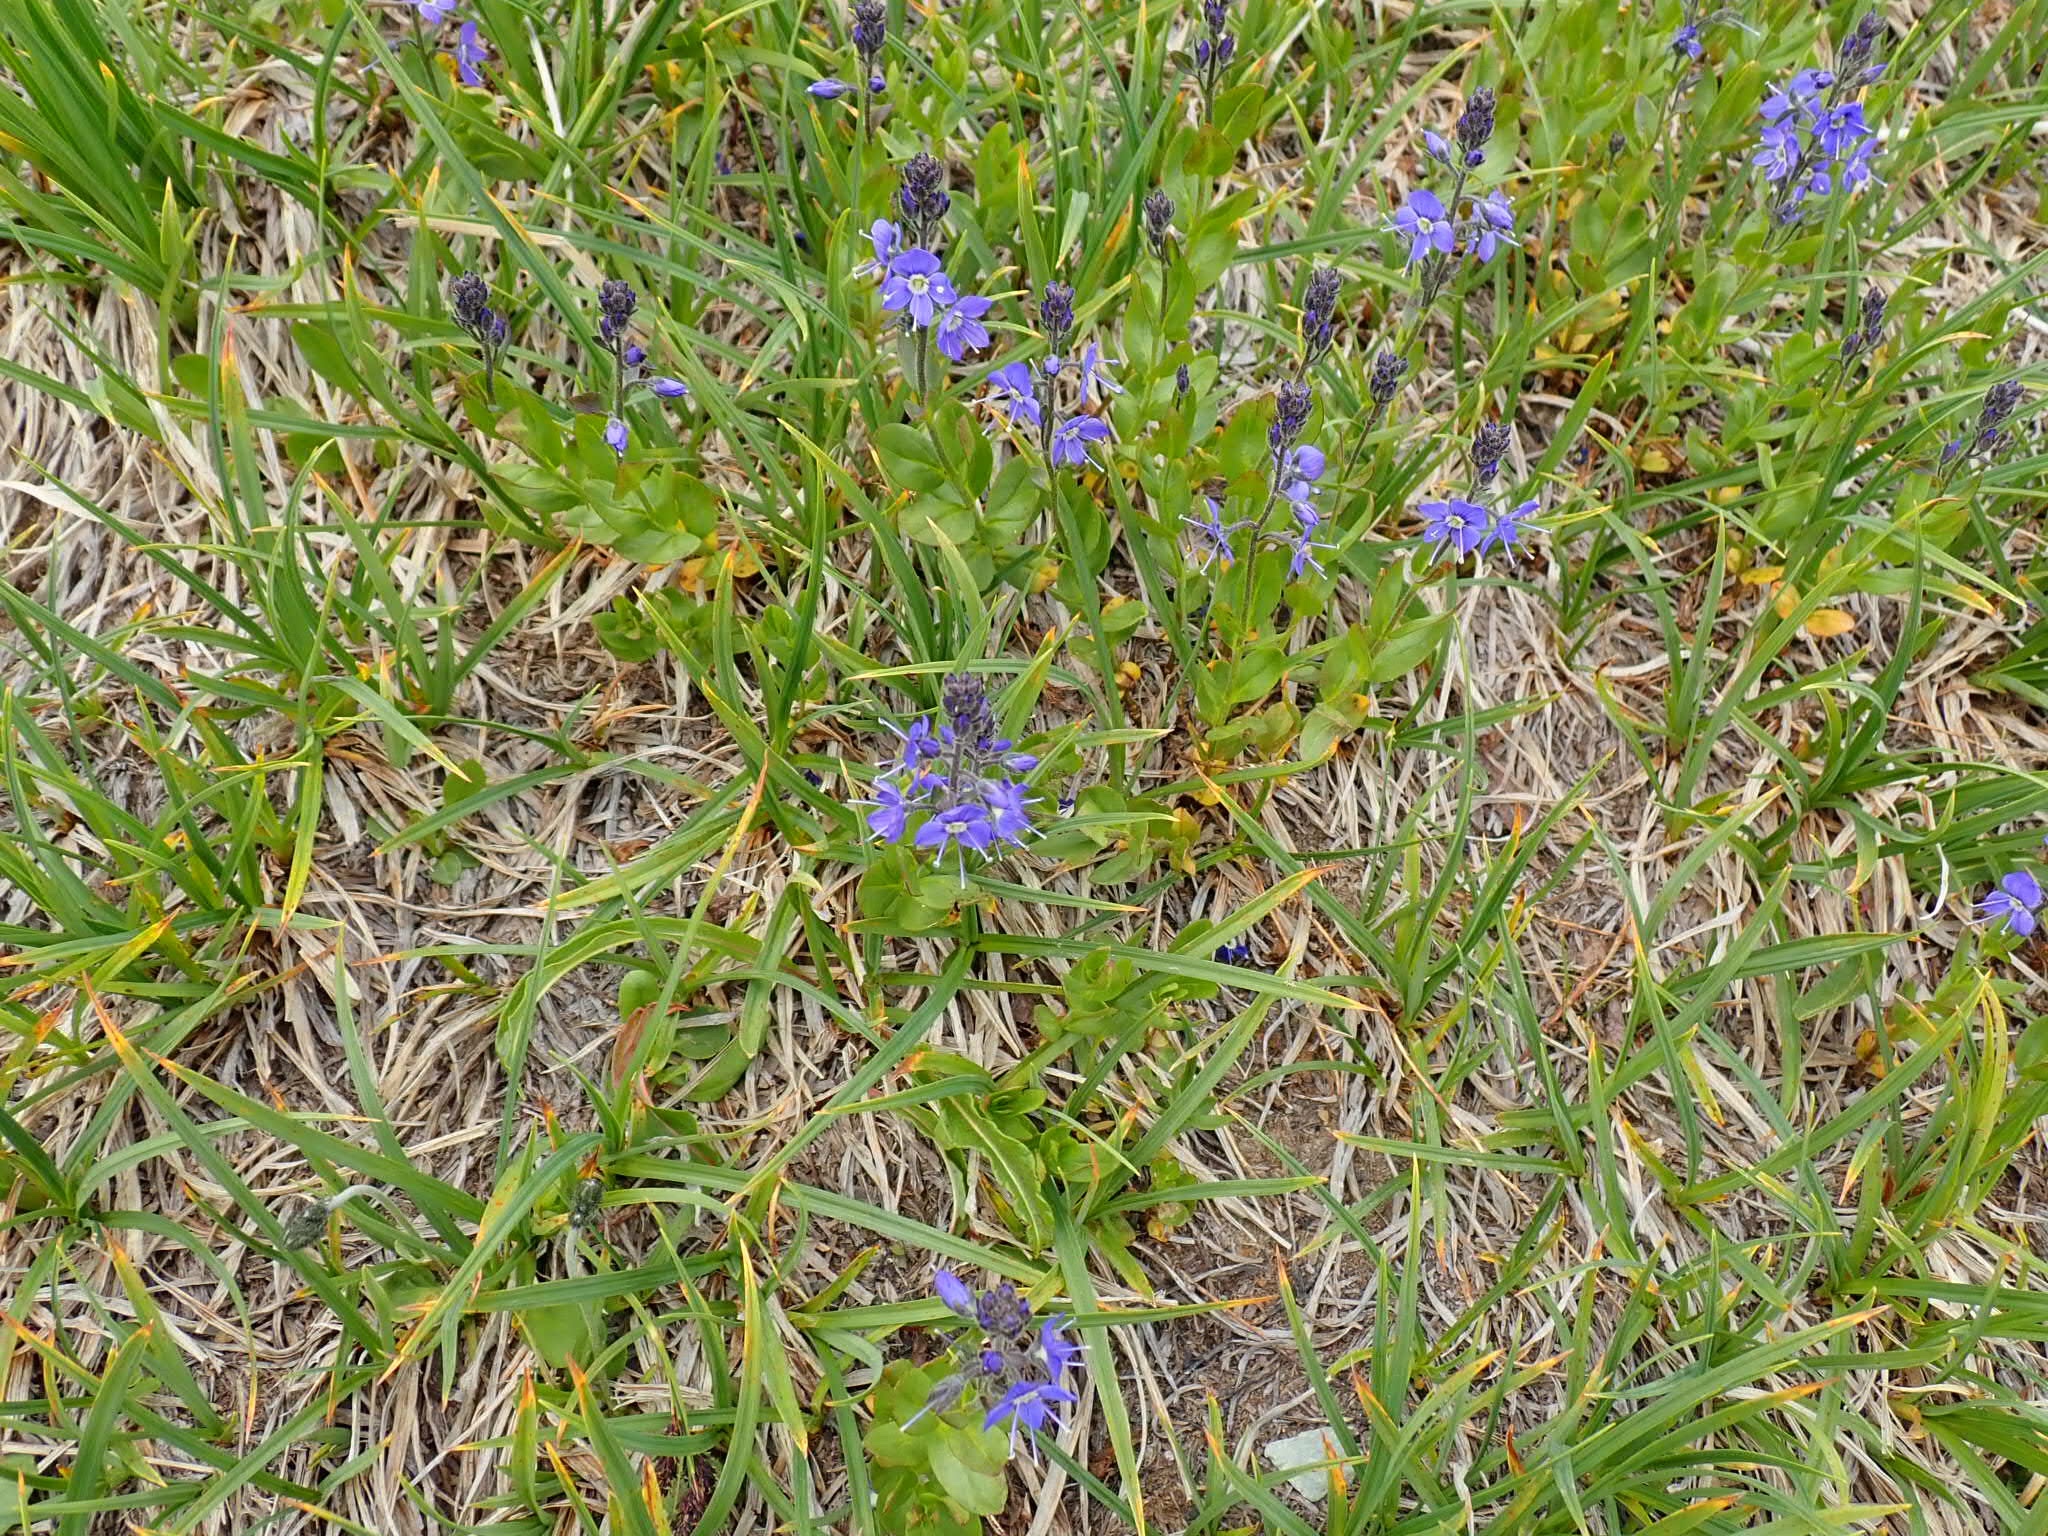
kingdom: Plantae
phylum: Tracheophyta
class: Magnoliopsida
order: Lamiales
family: Plantaginaceae
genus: Veronica
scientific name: Veronica cusickii
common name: Cusick's speedwell
